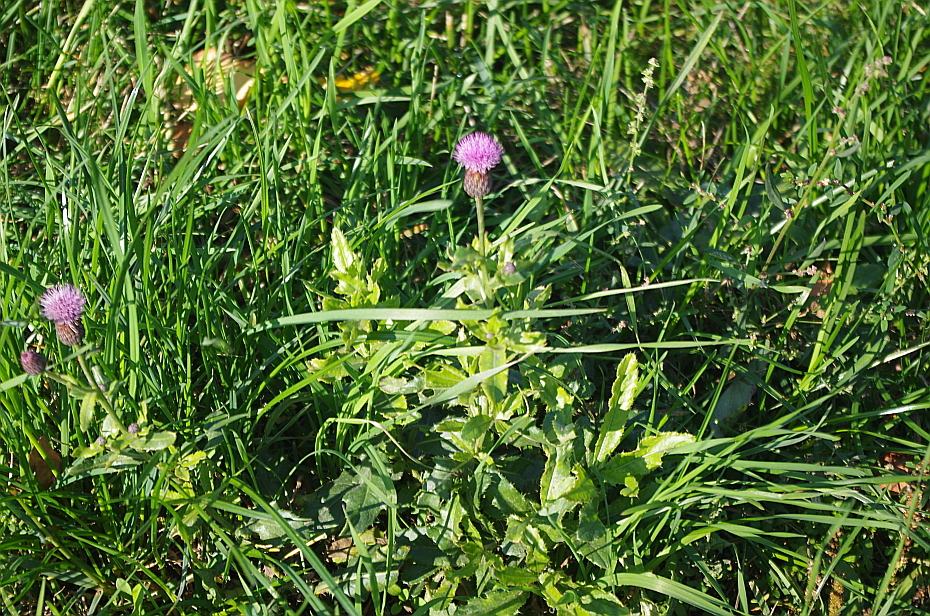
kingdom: Plantae
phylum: Tracheophyta
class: Magnoliopsida
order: Asterales
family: Asteraceae
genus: Cirsium
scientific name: Cirsium arvense
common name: Creeping thistle
